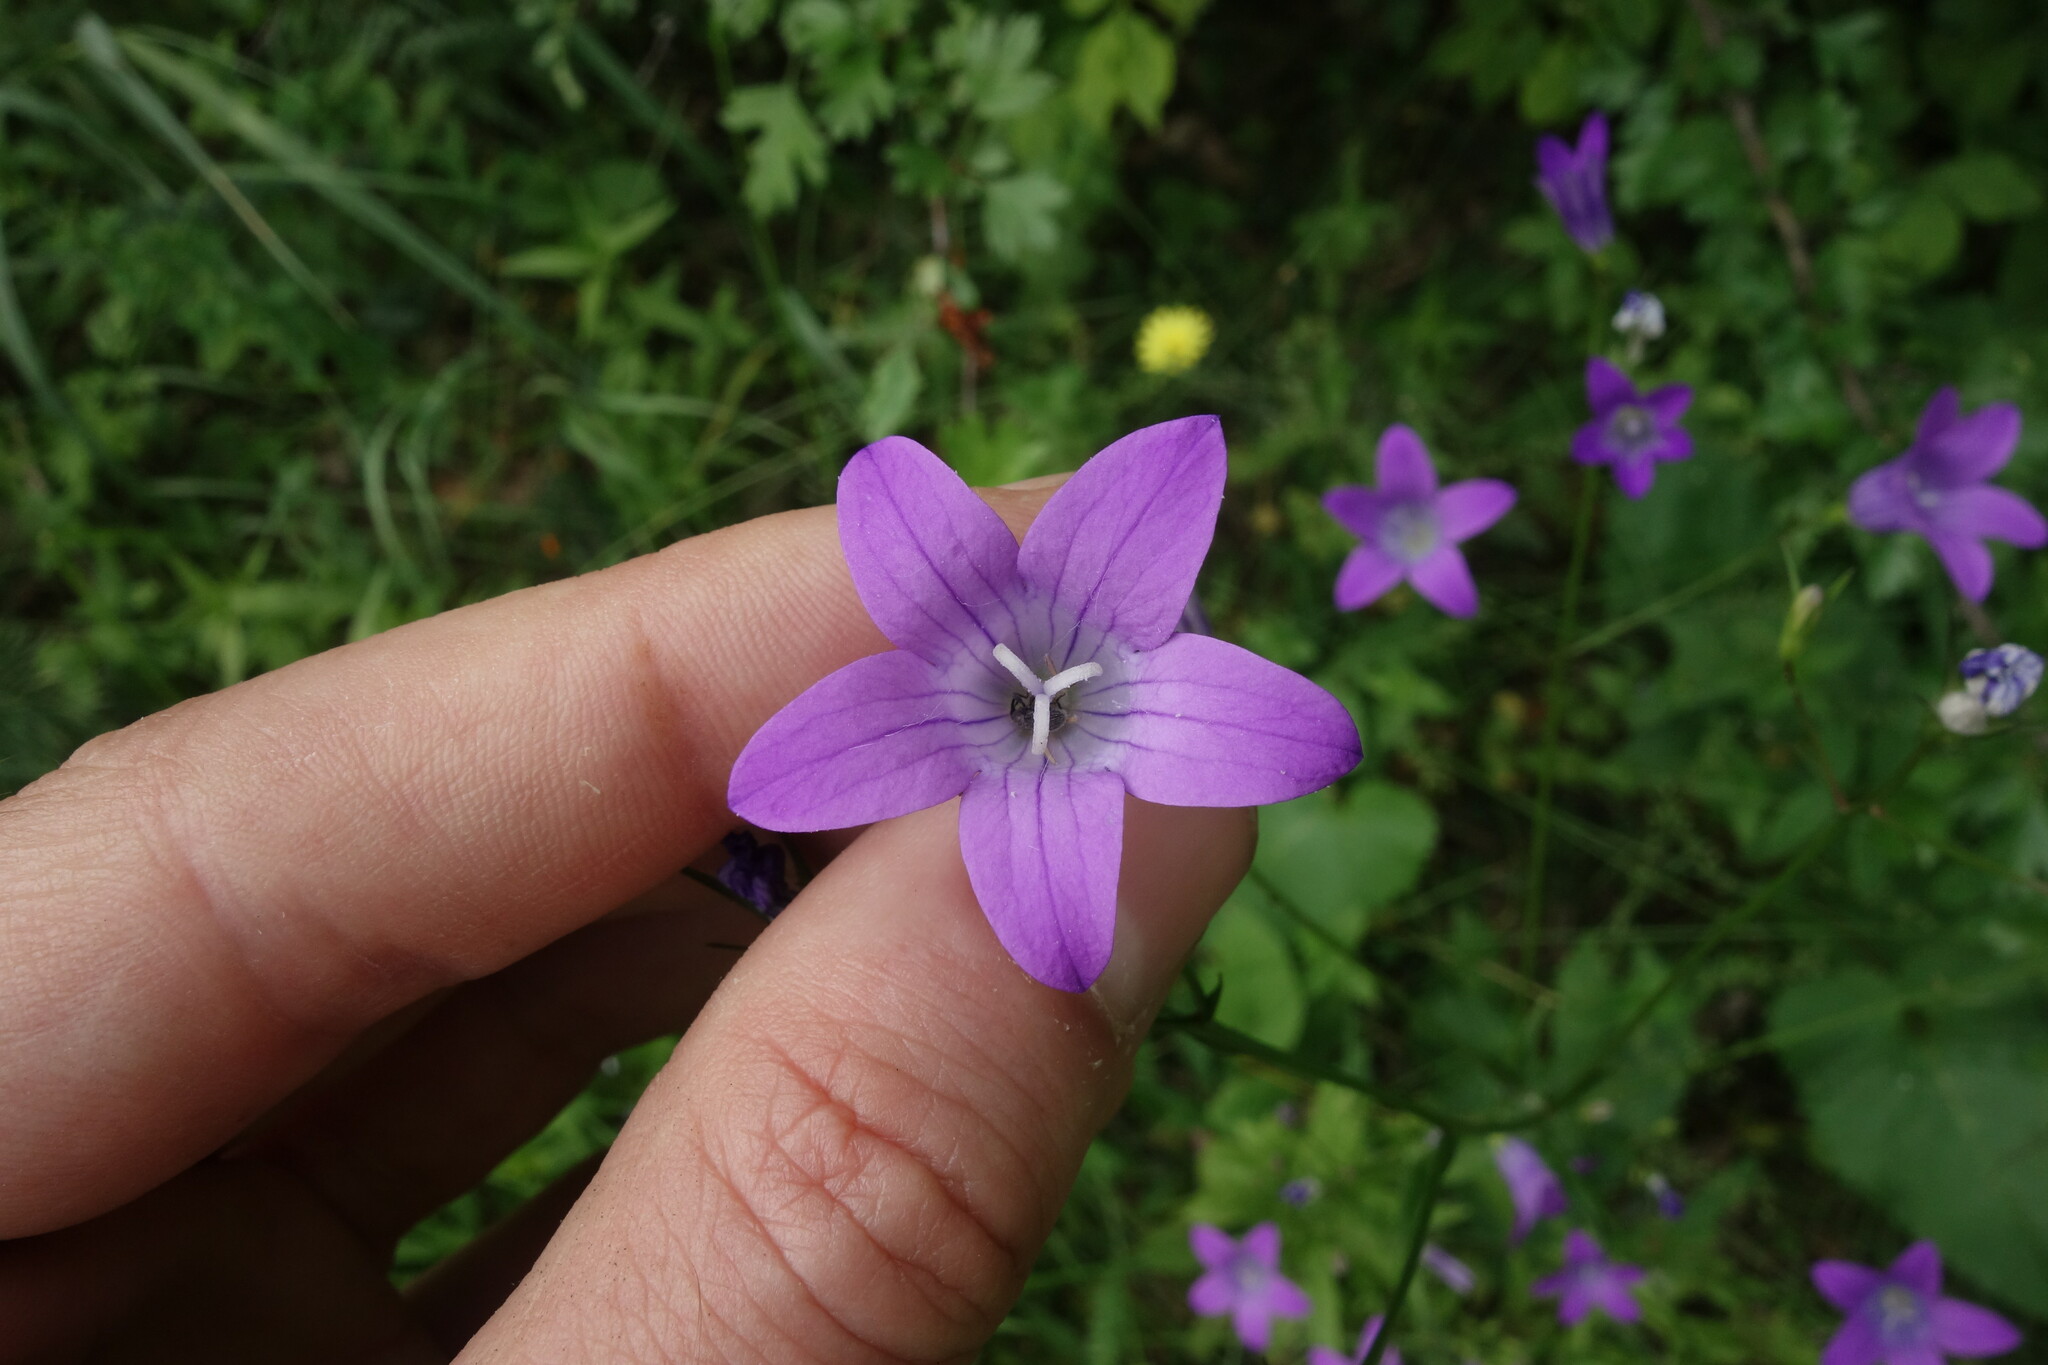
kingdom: Plantae
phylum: Tracheophyta
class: Magnoliopsida
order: Asterales
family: Campanulaceae
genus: Campanula
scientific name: Campanula patula
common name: Spreading bellflower
